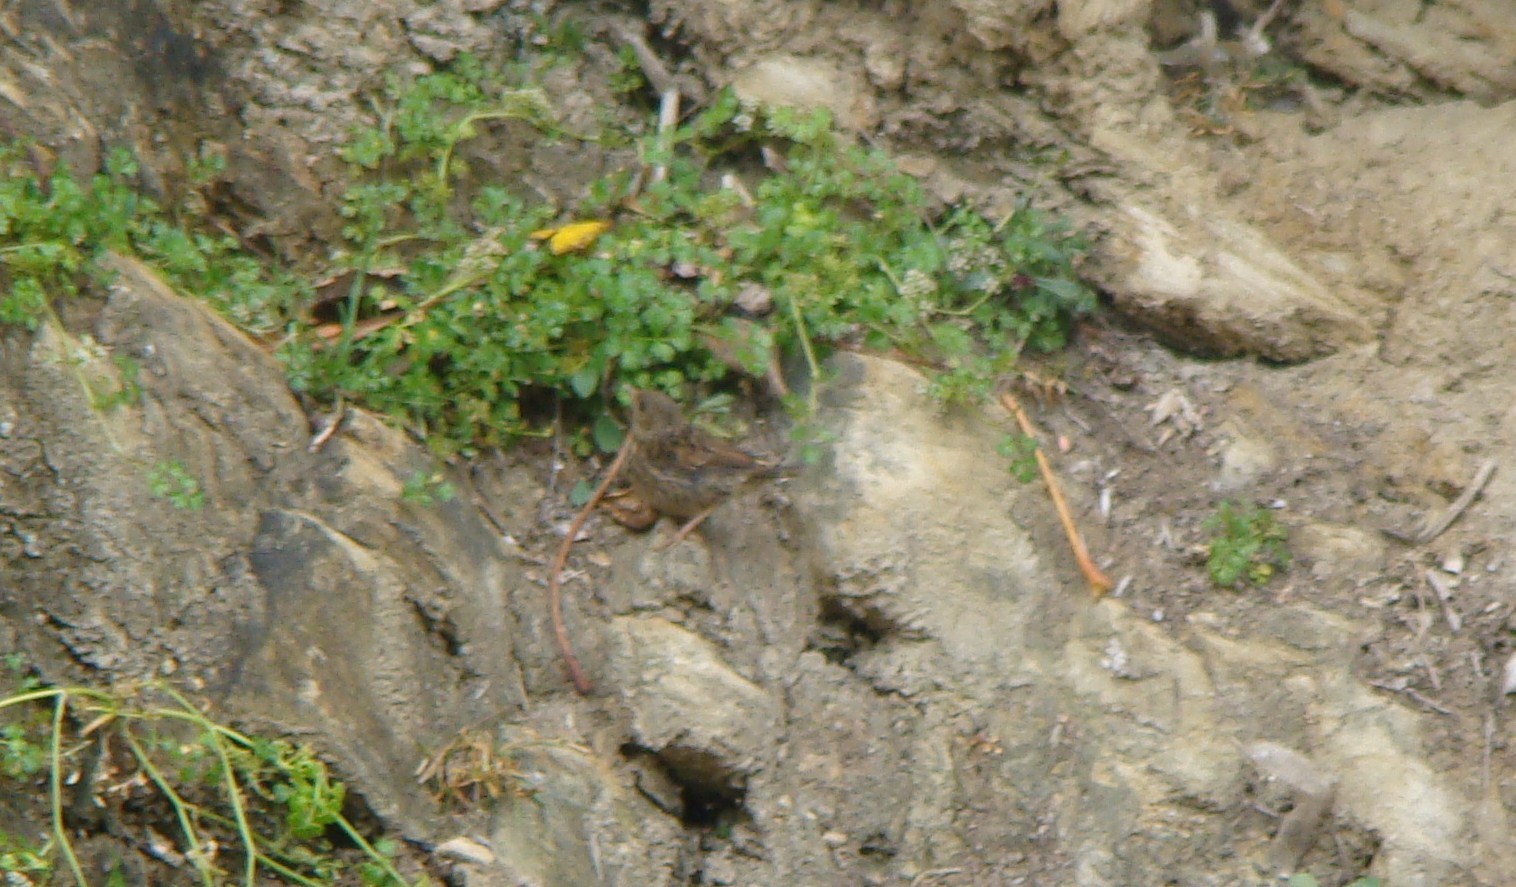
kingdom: Animalia
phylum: Chordata
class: Aves
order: Passeriformes
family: Prunellidae
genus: Prunella
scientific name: Prunella modularis
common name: Dunnock
